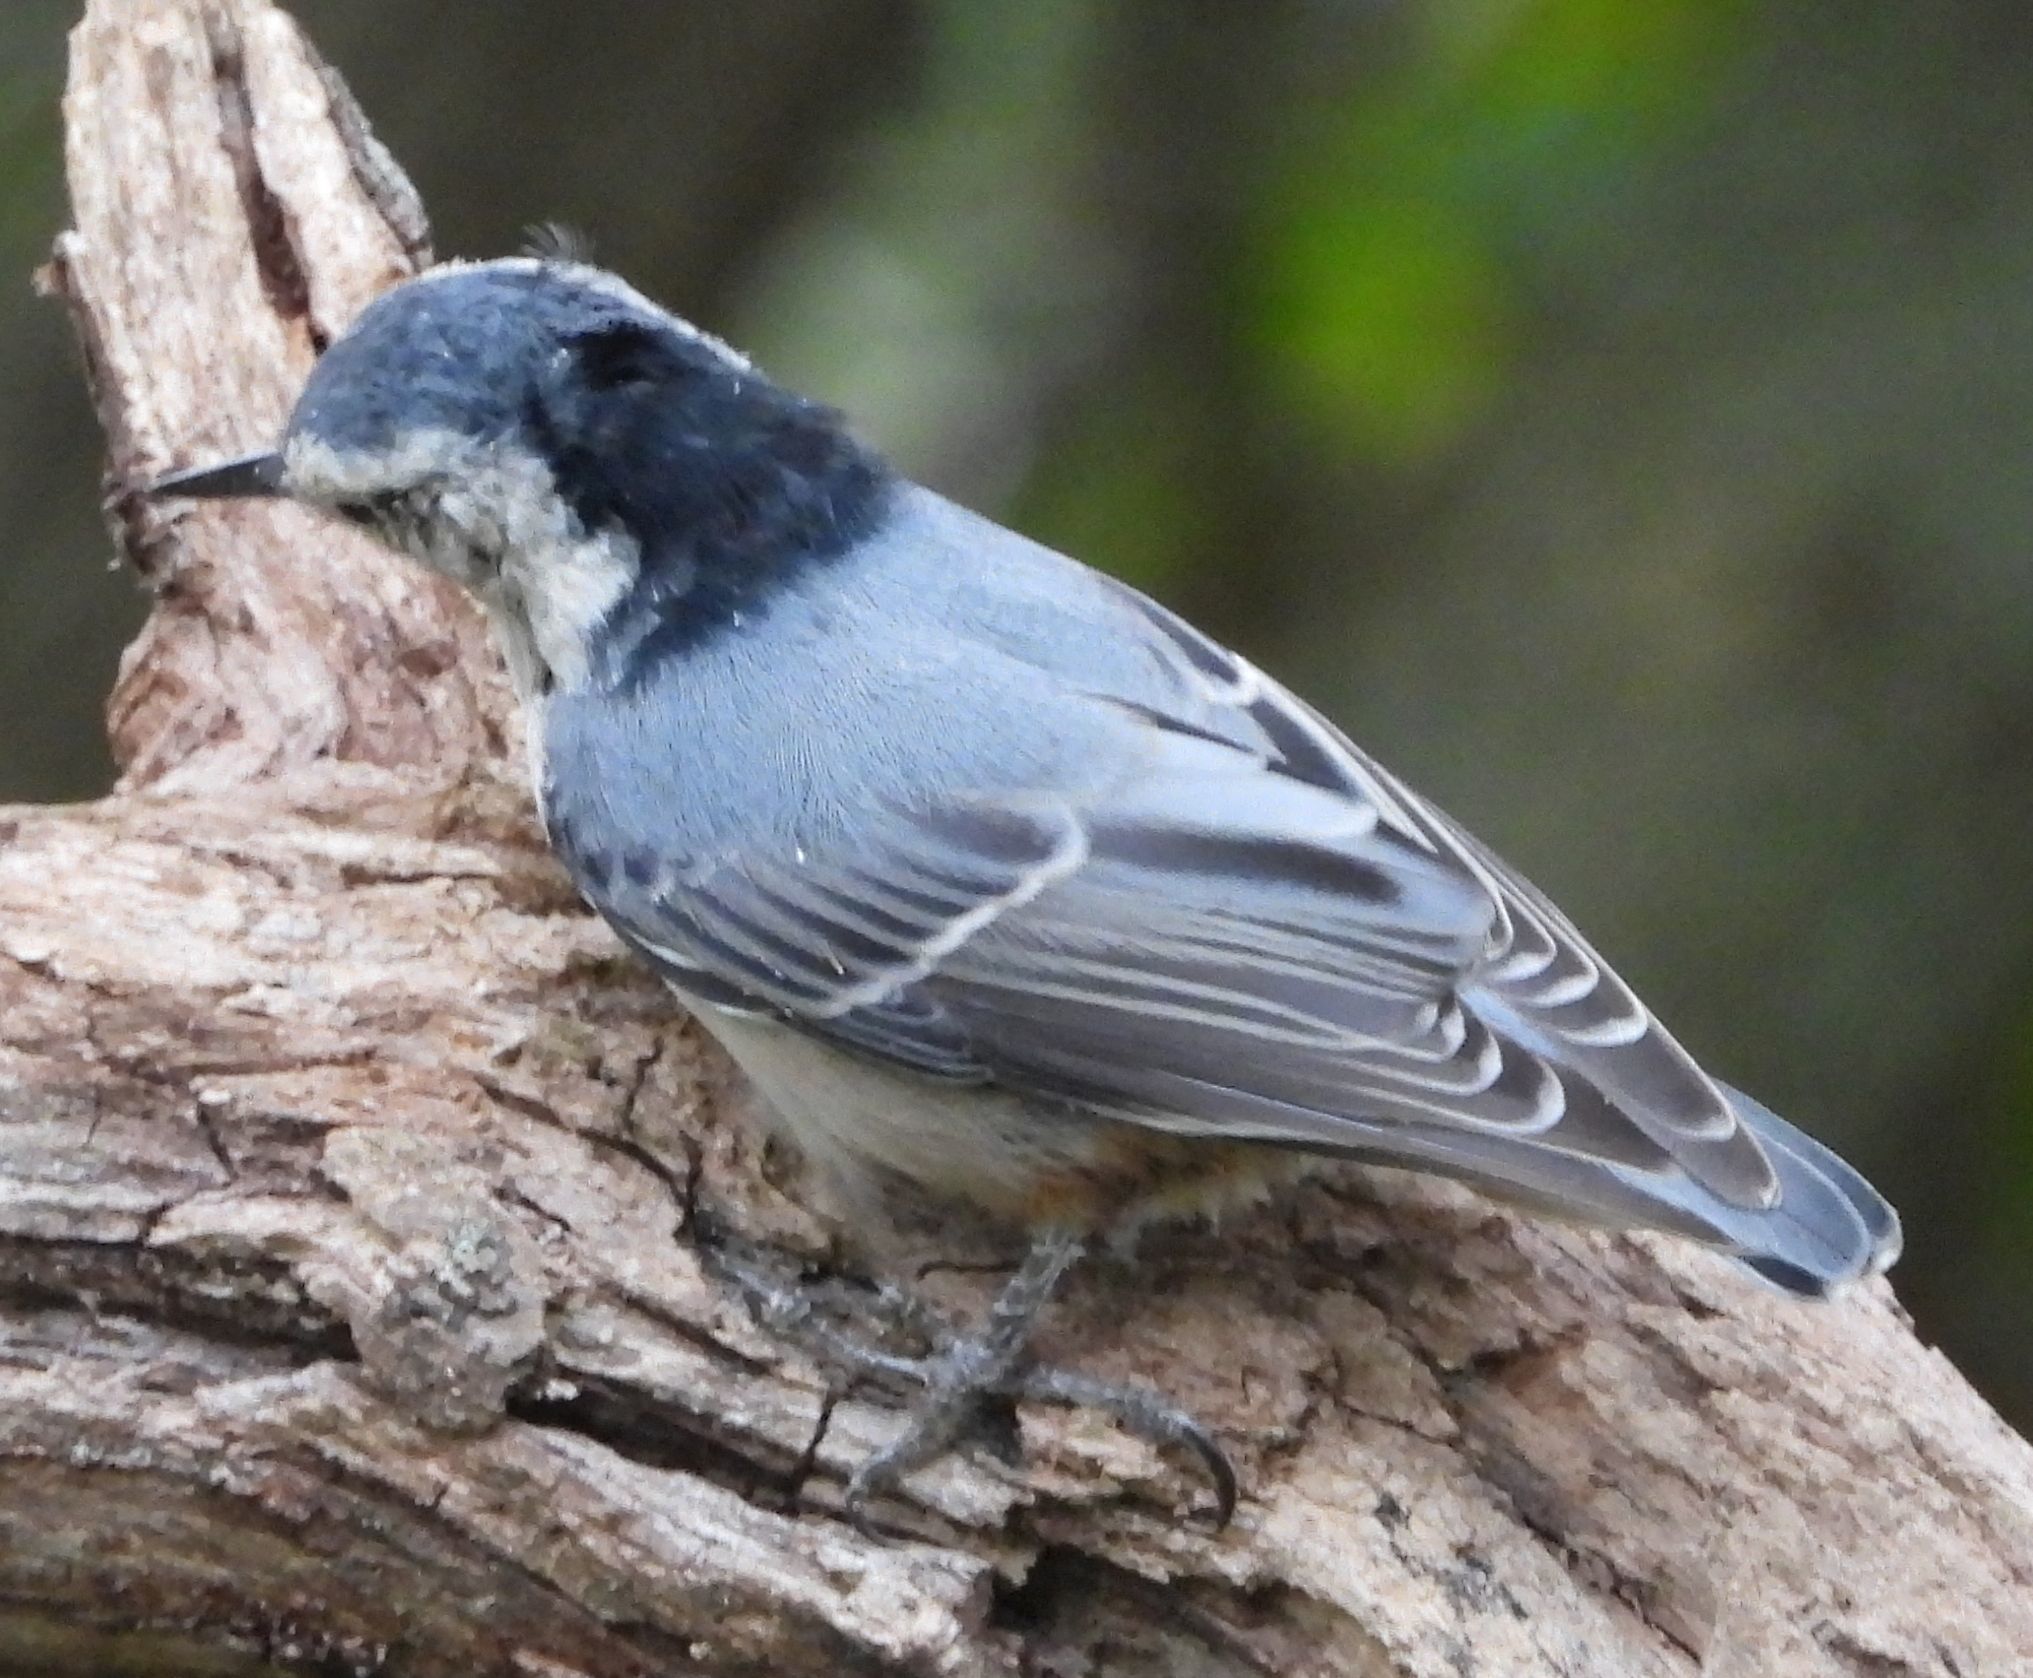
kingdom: Animalia
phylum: Chordata
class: Aves
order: Passeriformes
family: Sittidae
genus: Sitta
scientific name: Sitta carolinensis
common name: White-breasted nuthatch
